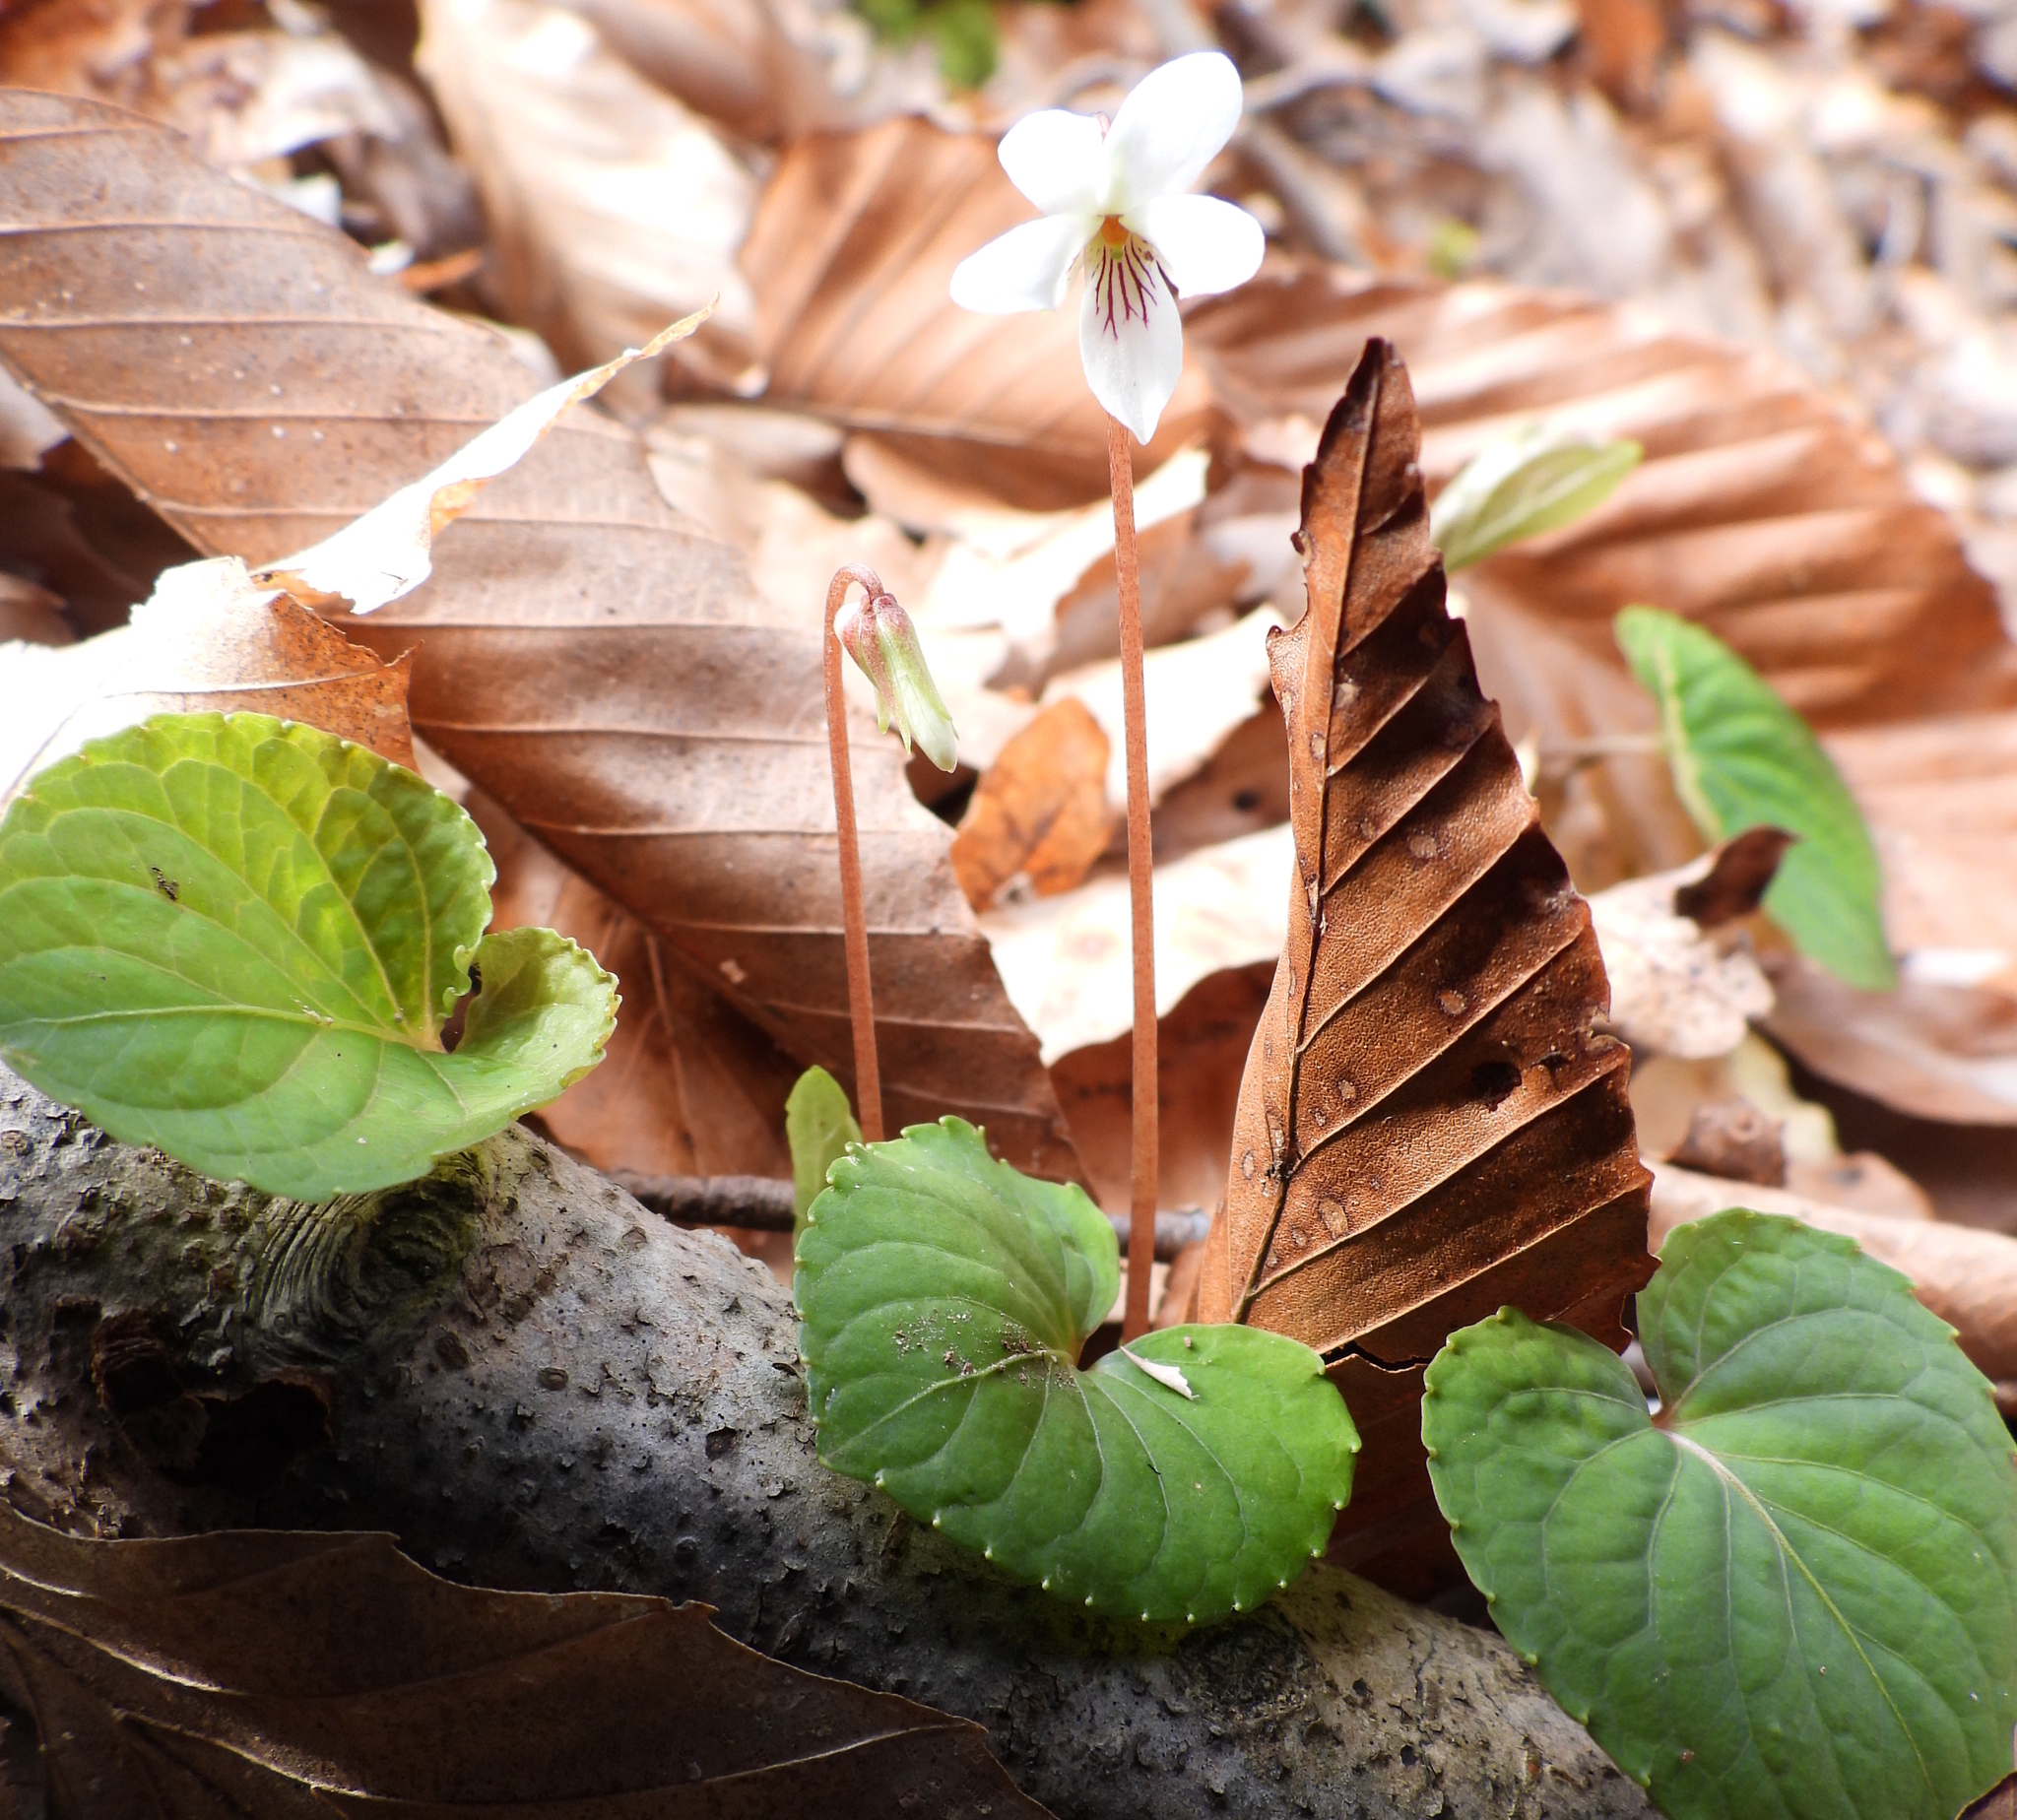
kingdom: Plantae
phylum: Tracheophyta
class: Magnoliopsida
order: Malpighiales
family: Violaceae
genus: Viola
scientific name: Viola blanda
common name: Sweet white violet
